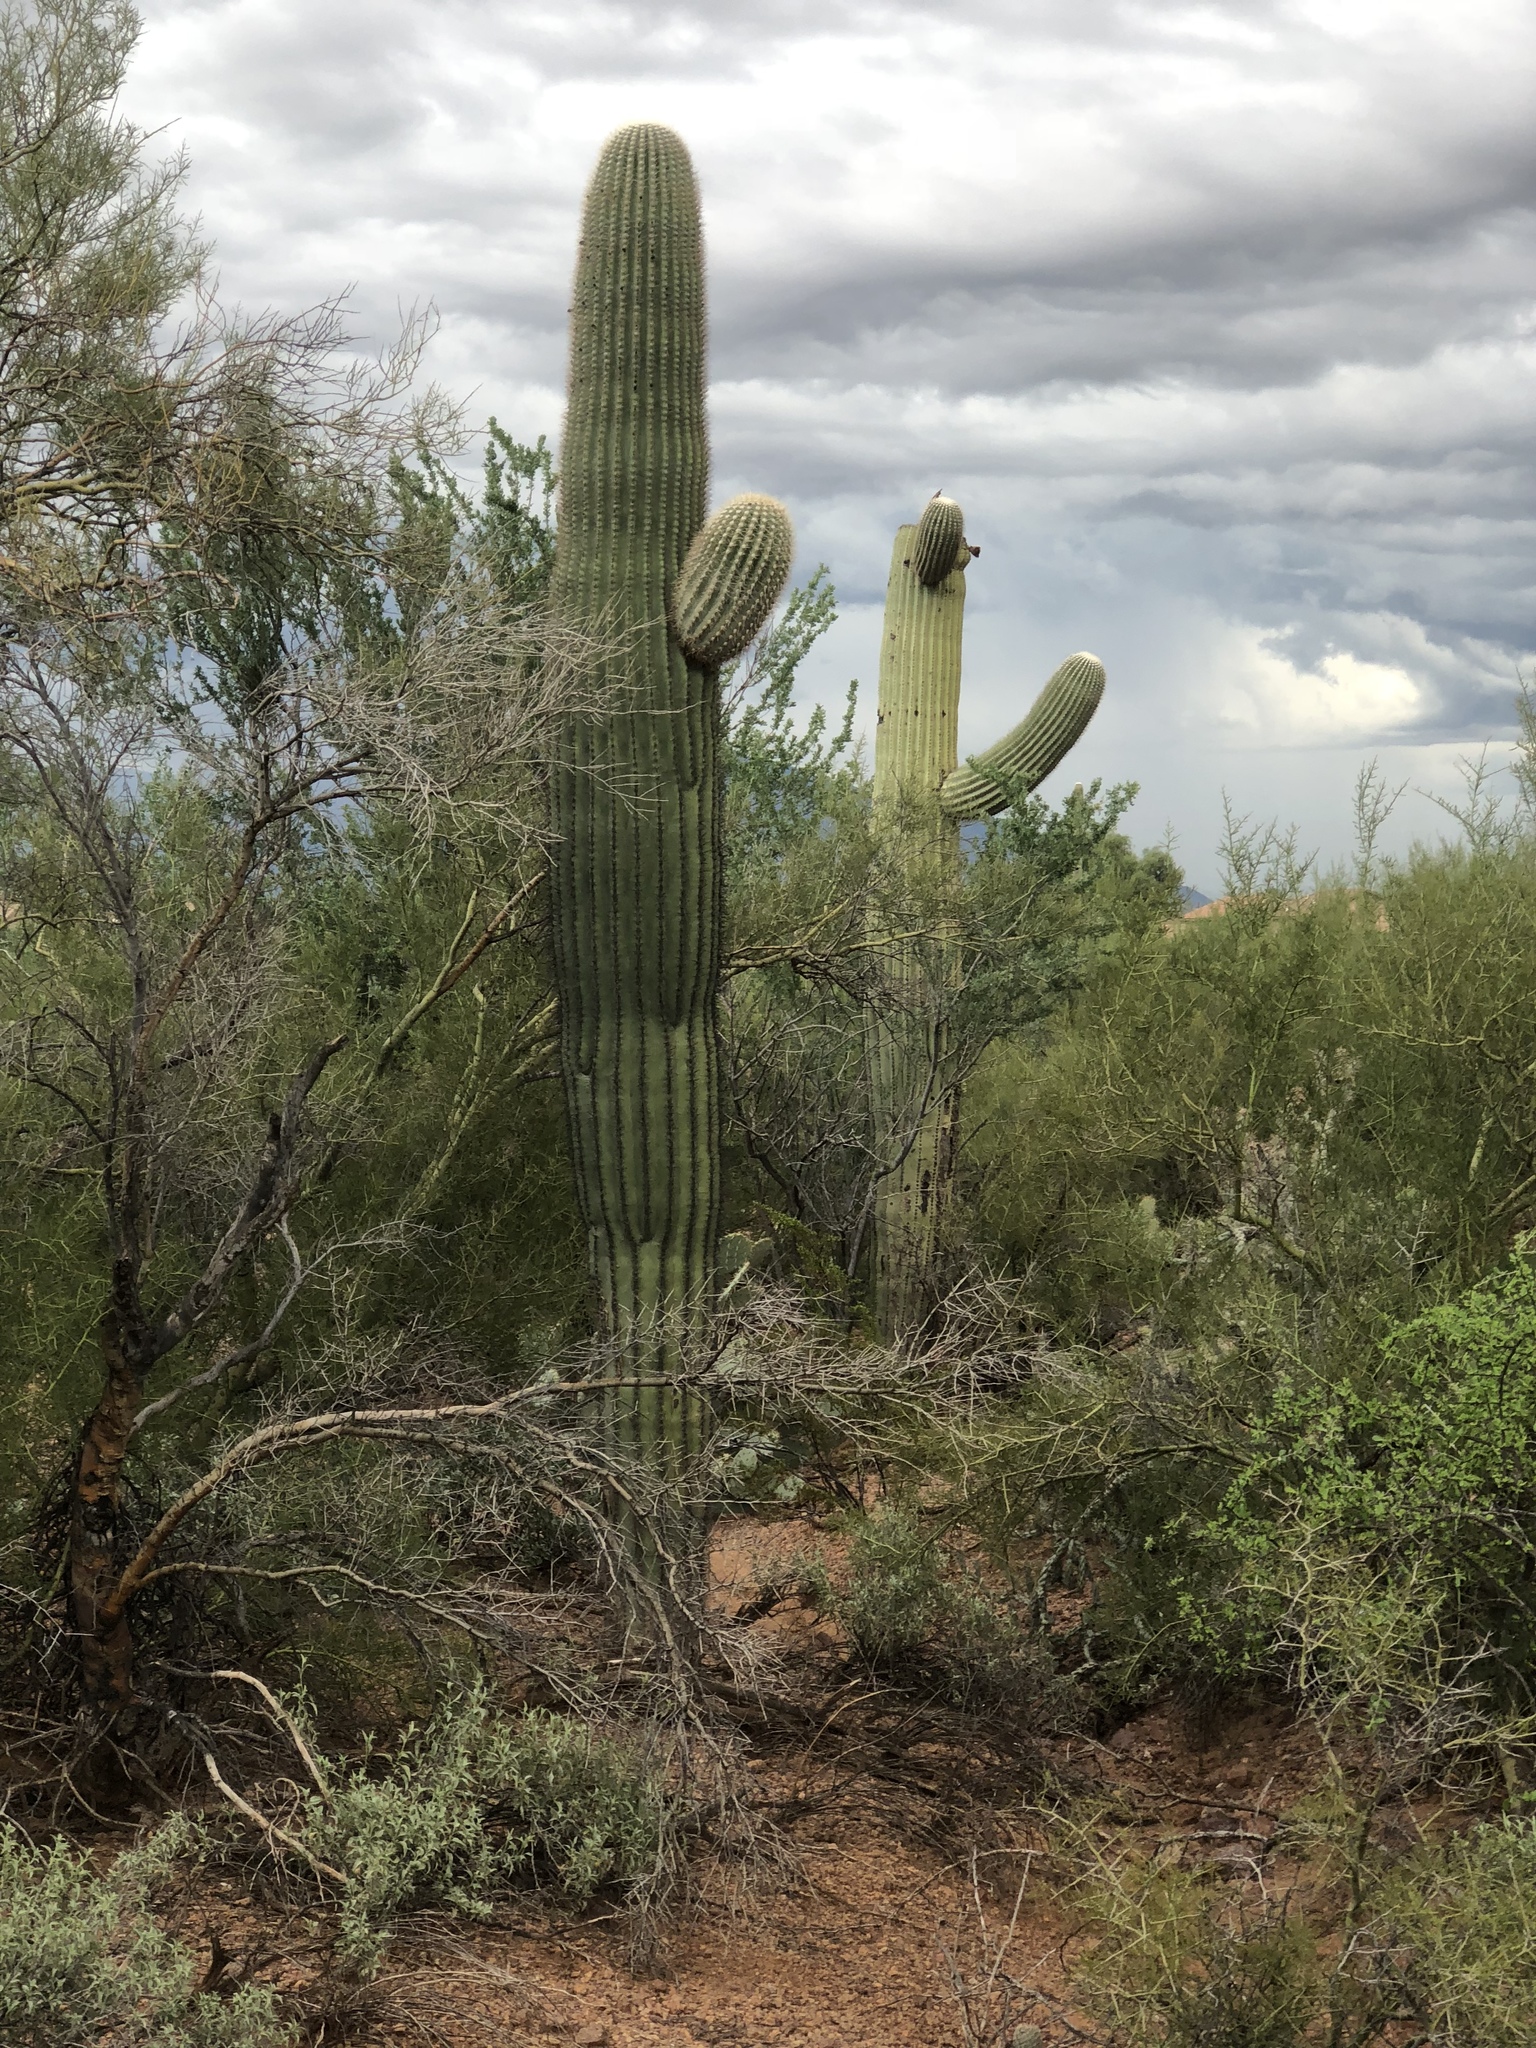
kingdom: Plantae
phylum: Tracheophyta
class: Magnoliopsida
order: Caryophyllales
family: Cactaceae
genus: Carnegiea
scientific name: Carnegiea gigantea
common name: Saguaro
